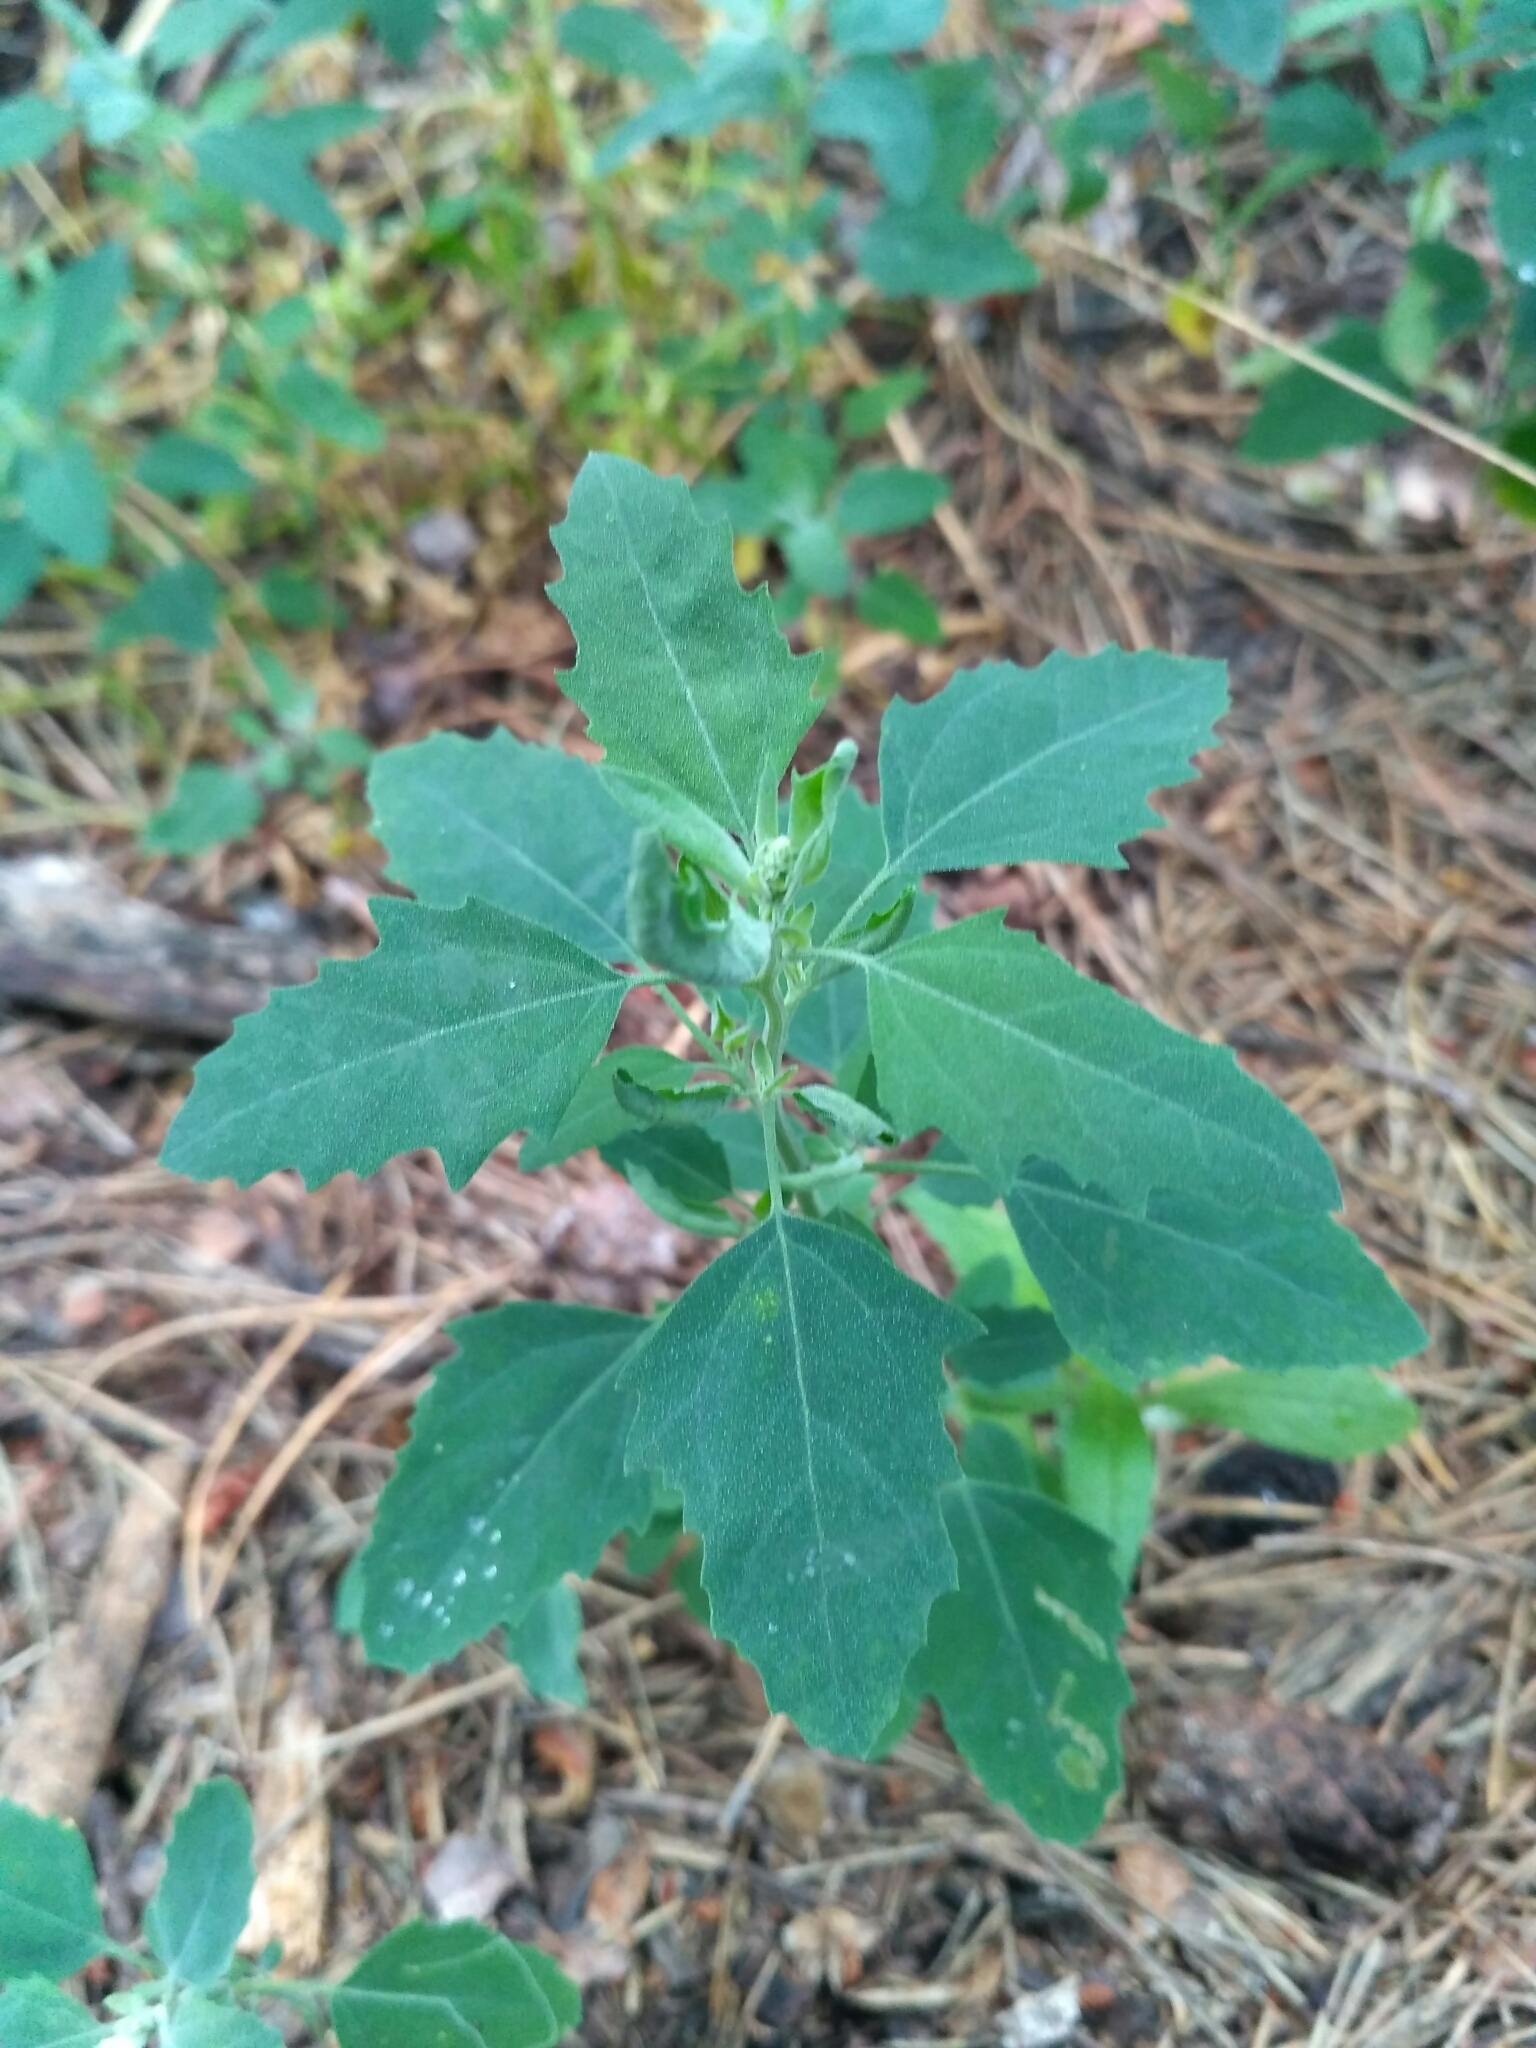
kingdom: Plantae
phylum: Tracheophyta
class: Magnoliopsida
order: Caryophyllales
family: Amaranthaceae
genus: Chenopodium
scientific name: Chenopodium album
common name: Fat-hen
